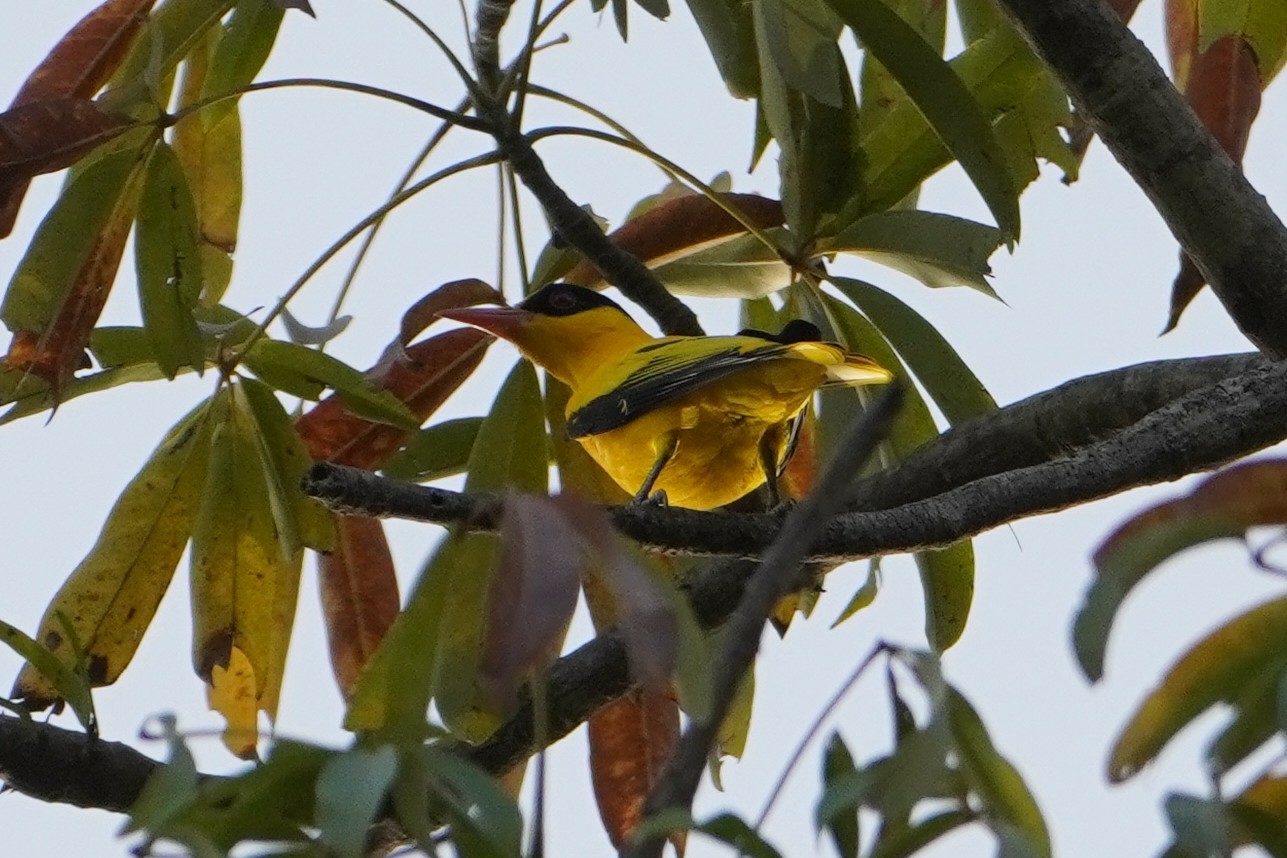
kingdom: Animalia
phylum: Chordata
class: Aves
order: Passeriformes
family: Oriolidae
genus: Oriolus
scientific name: Oriolus auratus
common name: African golden oriole
